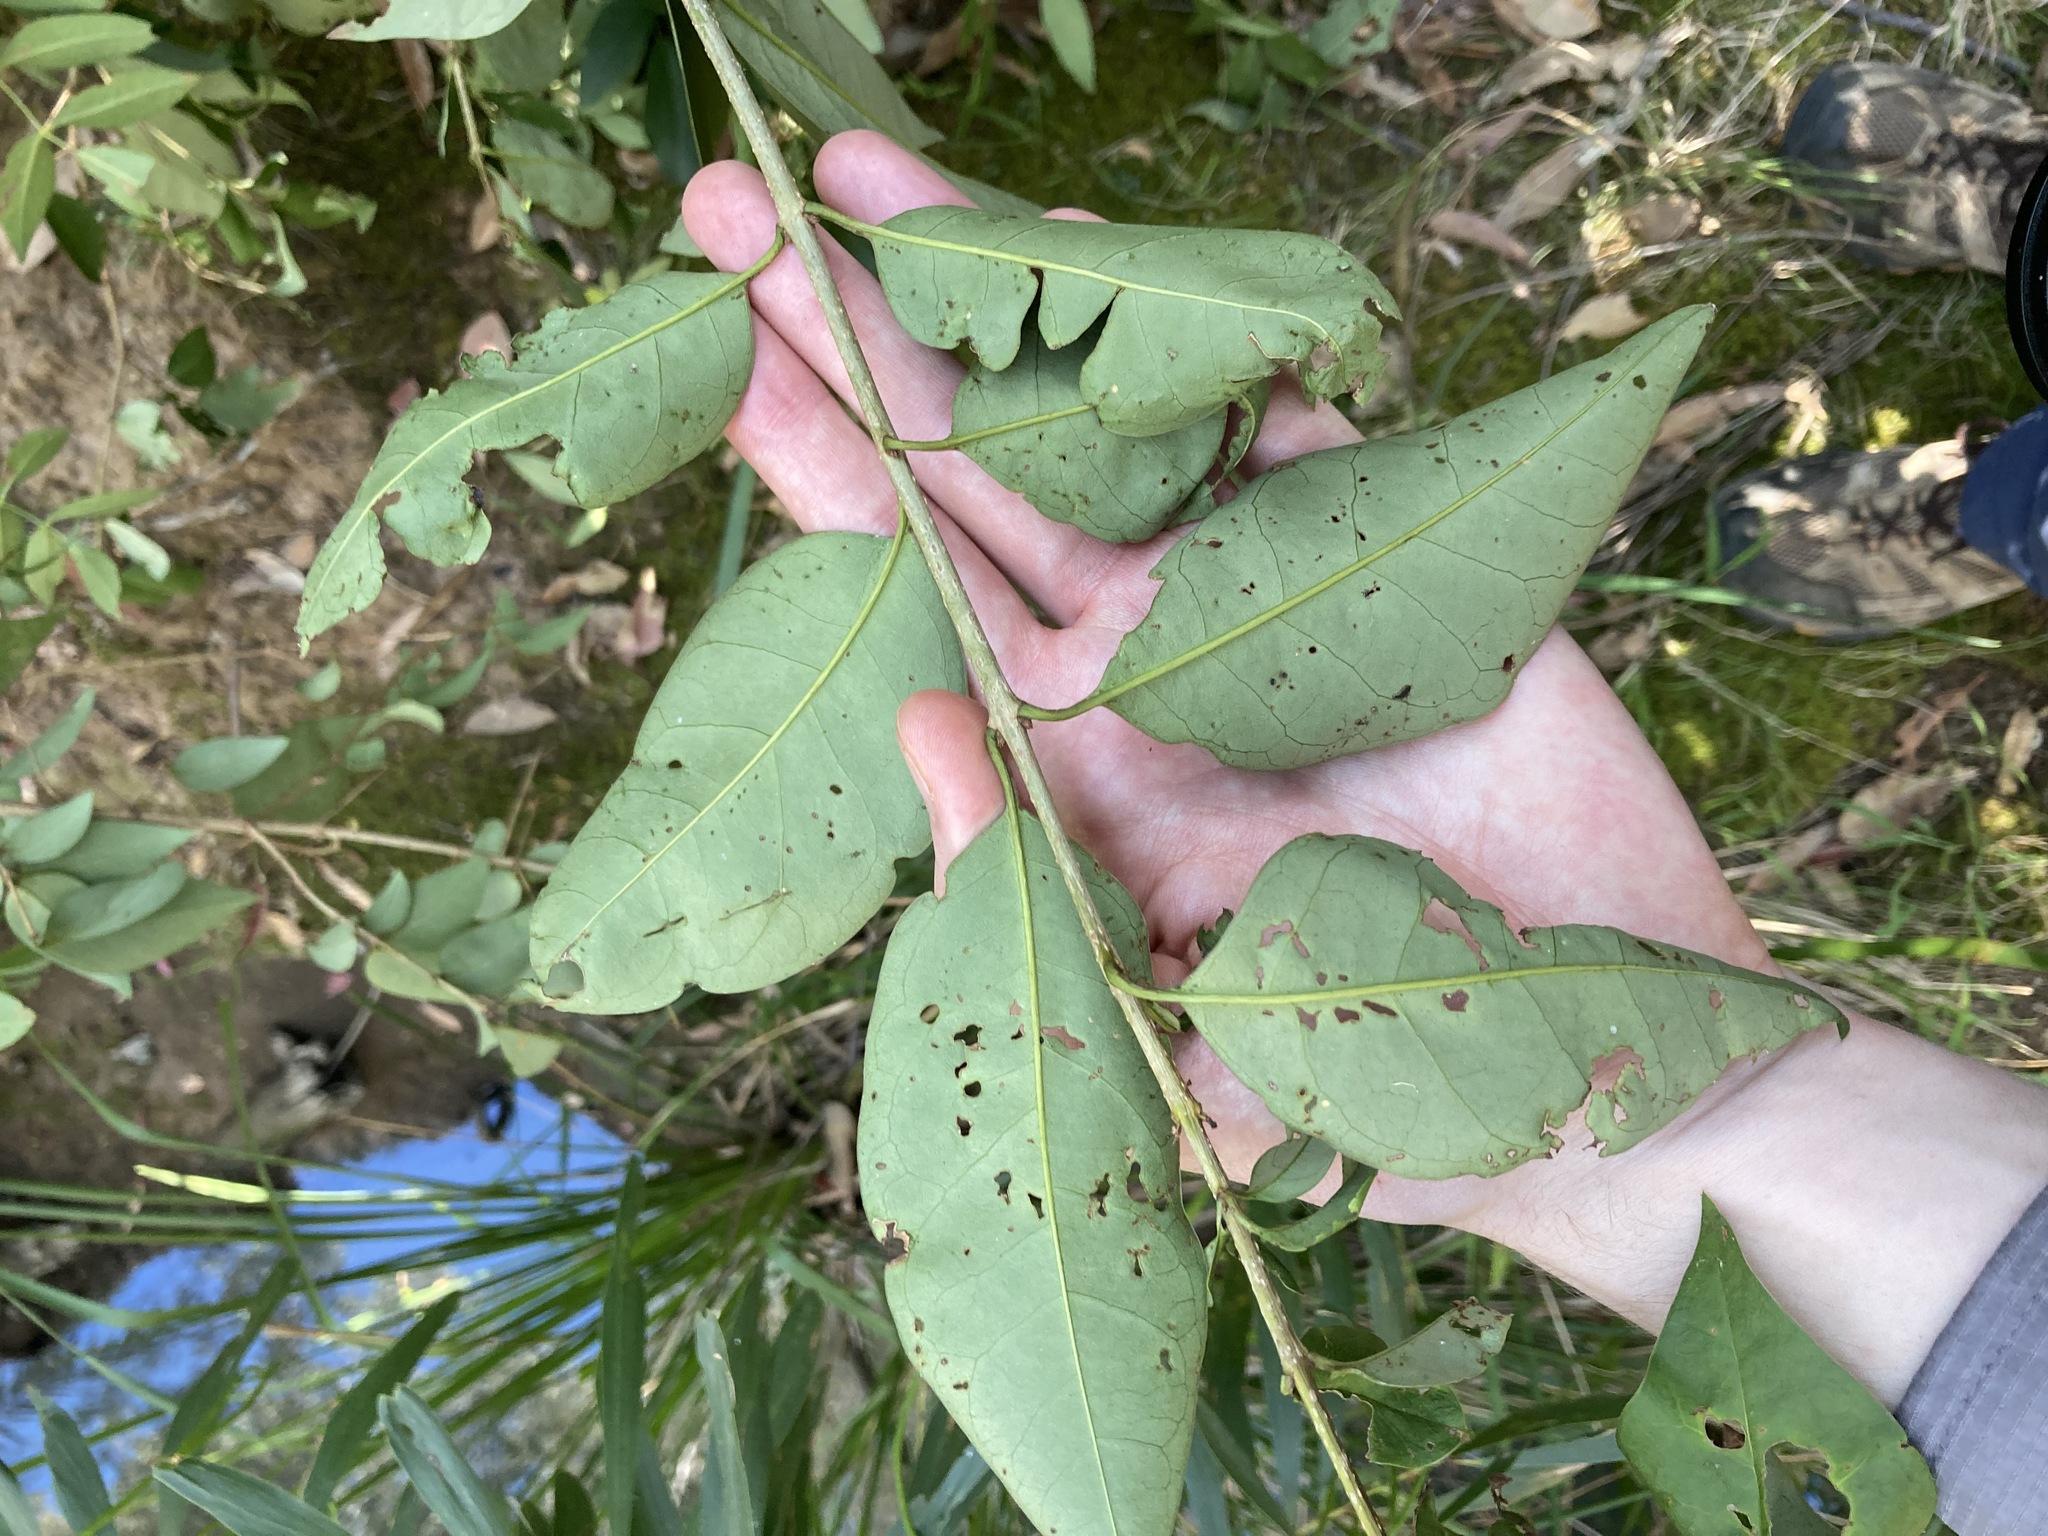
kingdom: Plantae
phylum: Tracheophyta
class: Magnoliopsida
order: Lamiales
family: Oleaceae
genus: Ligustrum
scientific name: Ligustrum lucidum
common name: Glossy privet
